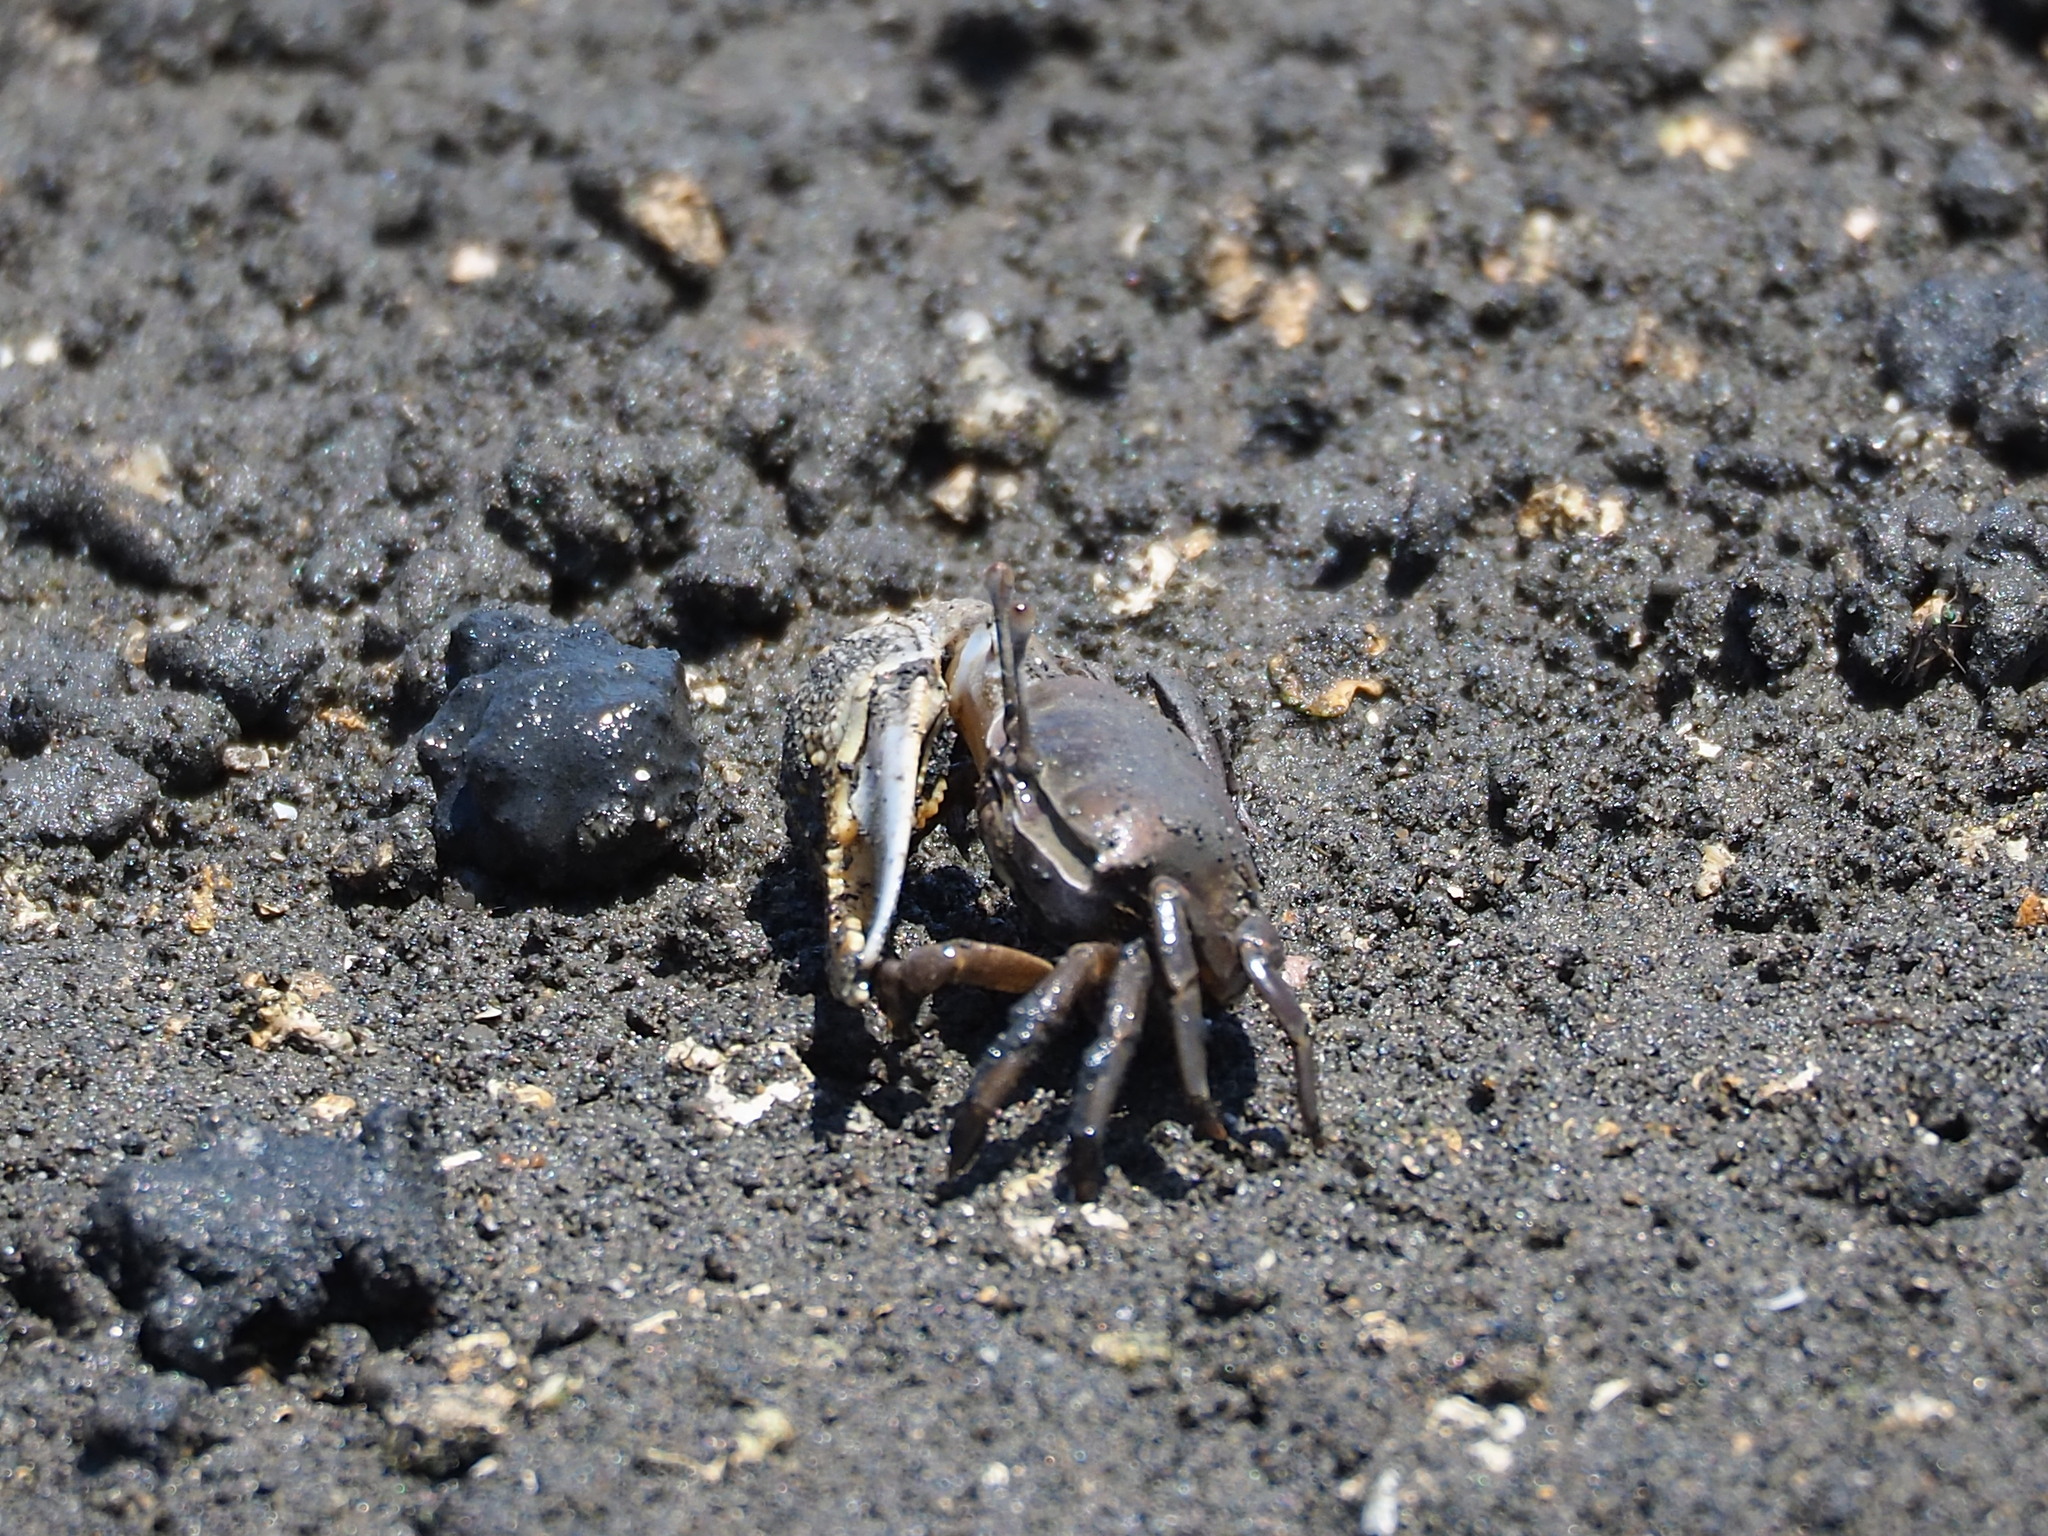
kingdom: Animalia
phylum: Arthropoda
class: Malacostraca
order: Decapoda
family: Ocypodidae
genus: Gelasimus
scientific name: Gelasimus borealis
